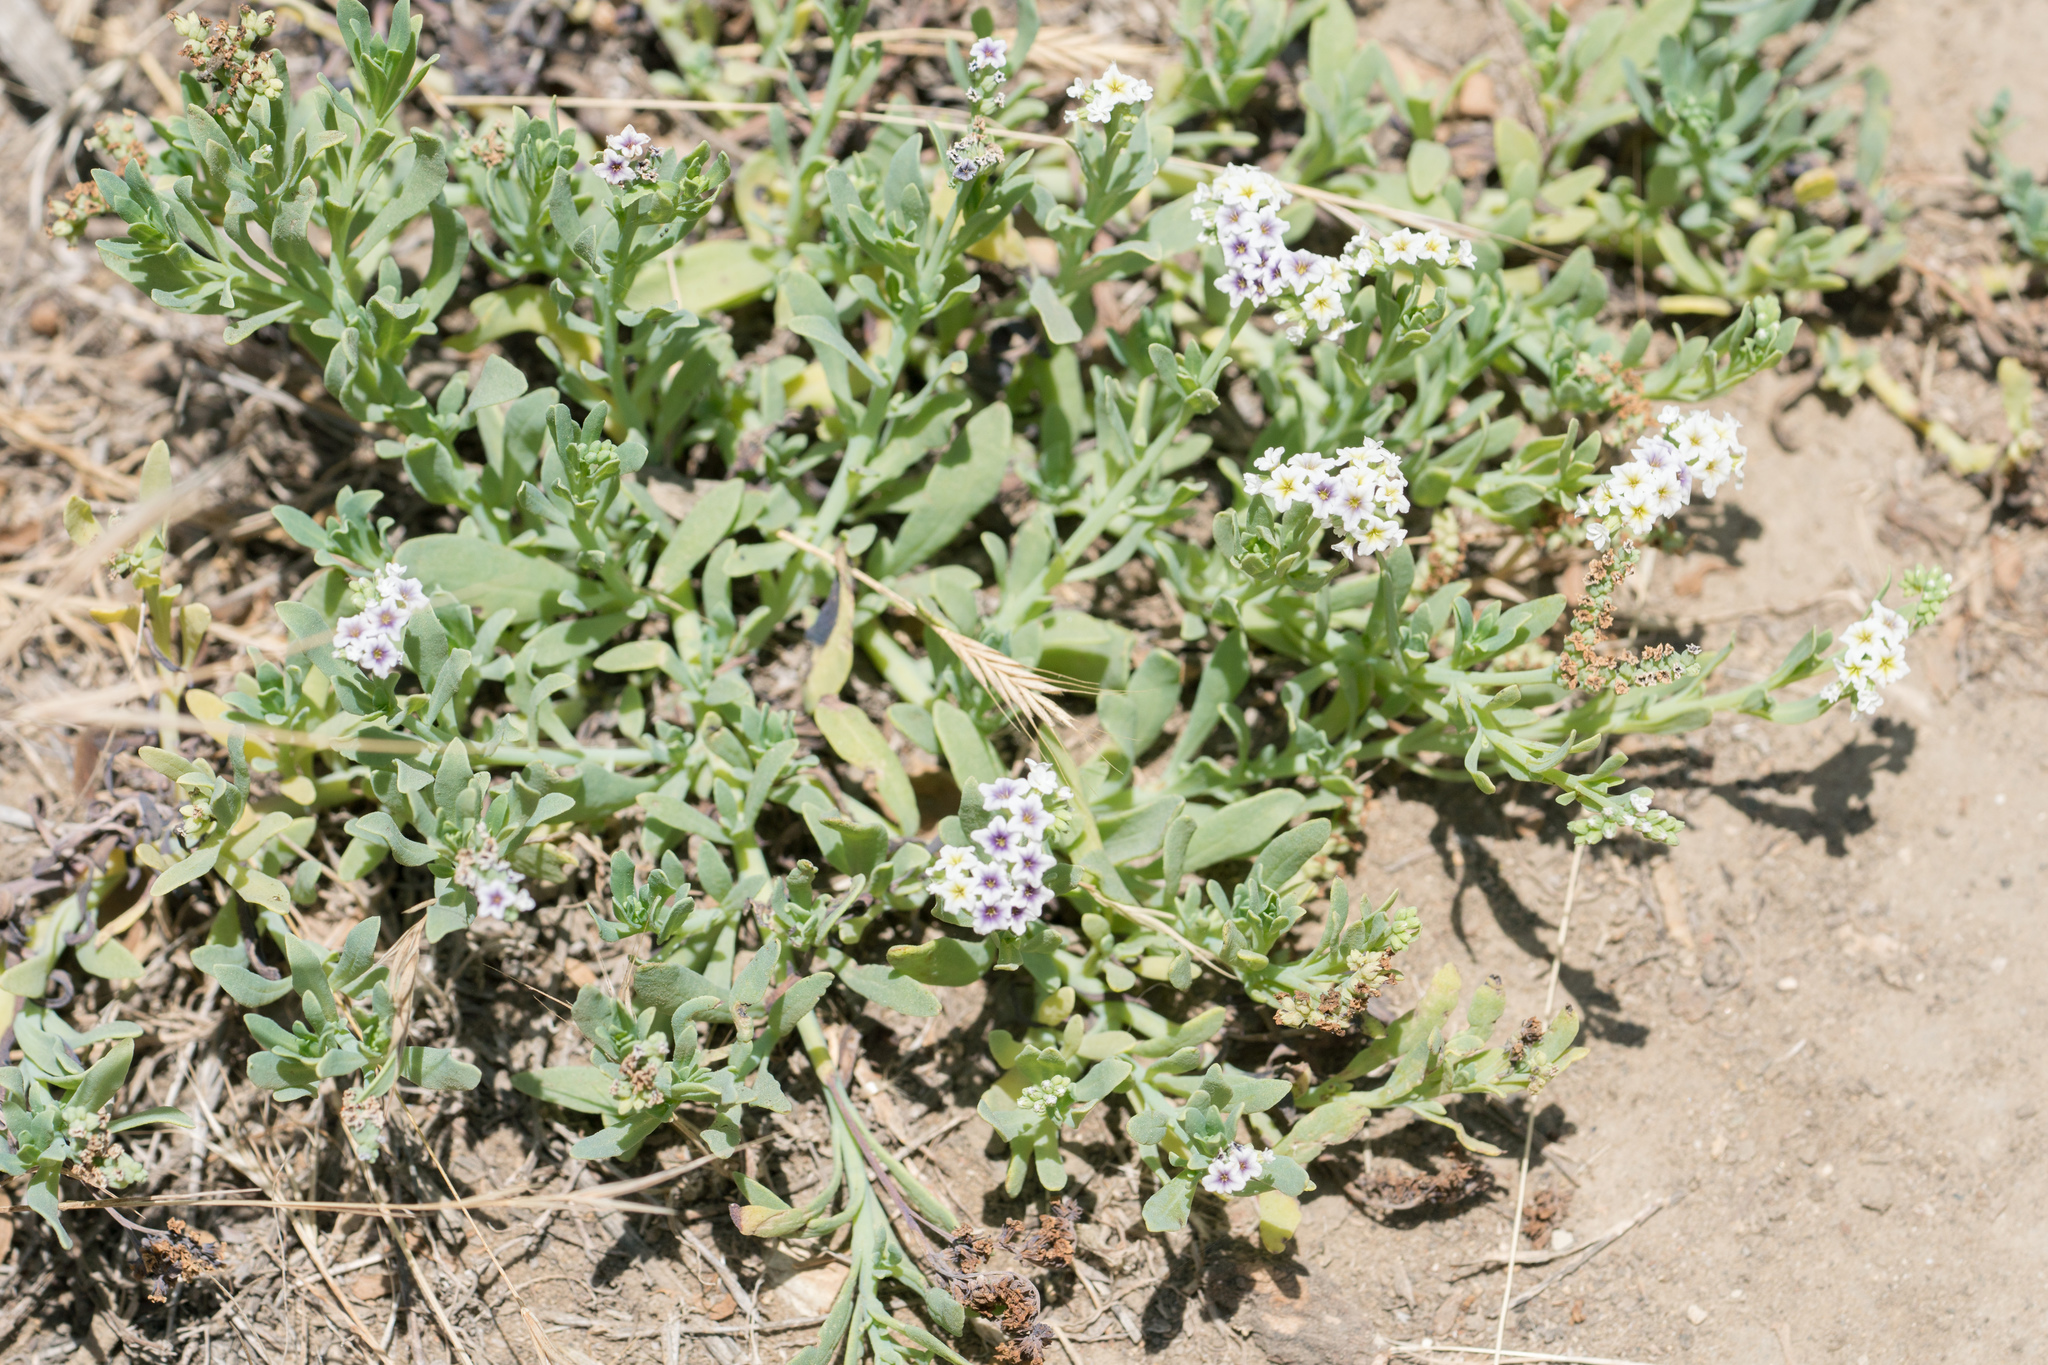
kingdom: Plantae
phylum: Tracheophyta
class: Magnoliopsida
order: Boraginales
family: Heliotropiaceae
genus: Heliotropium
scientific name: Heliotropium curassavicum
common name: Seaside heliotrope
